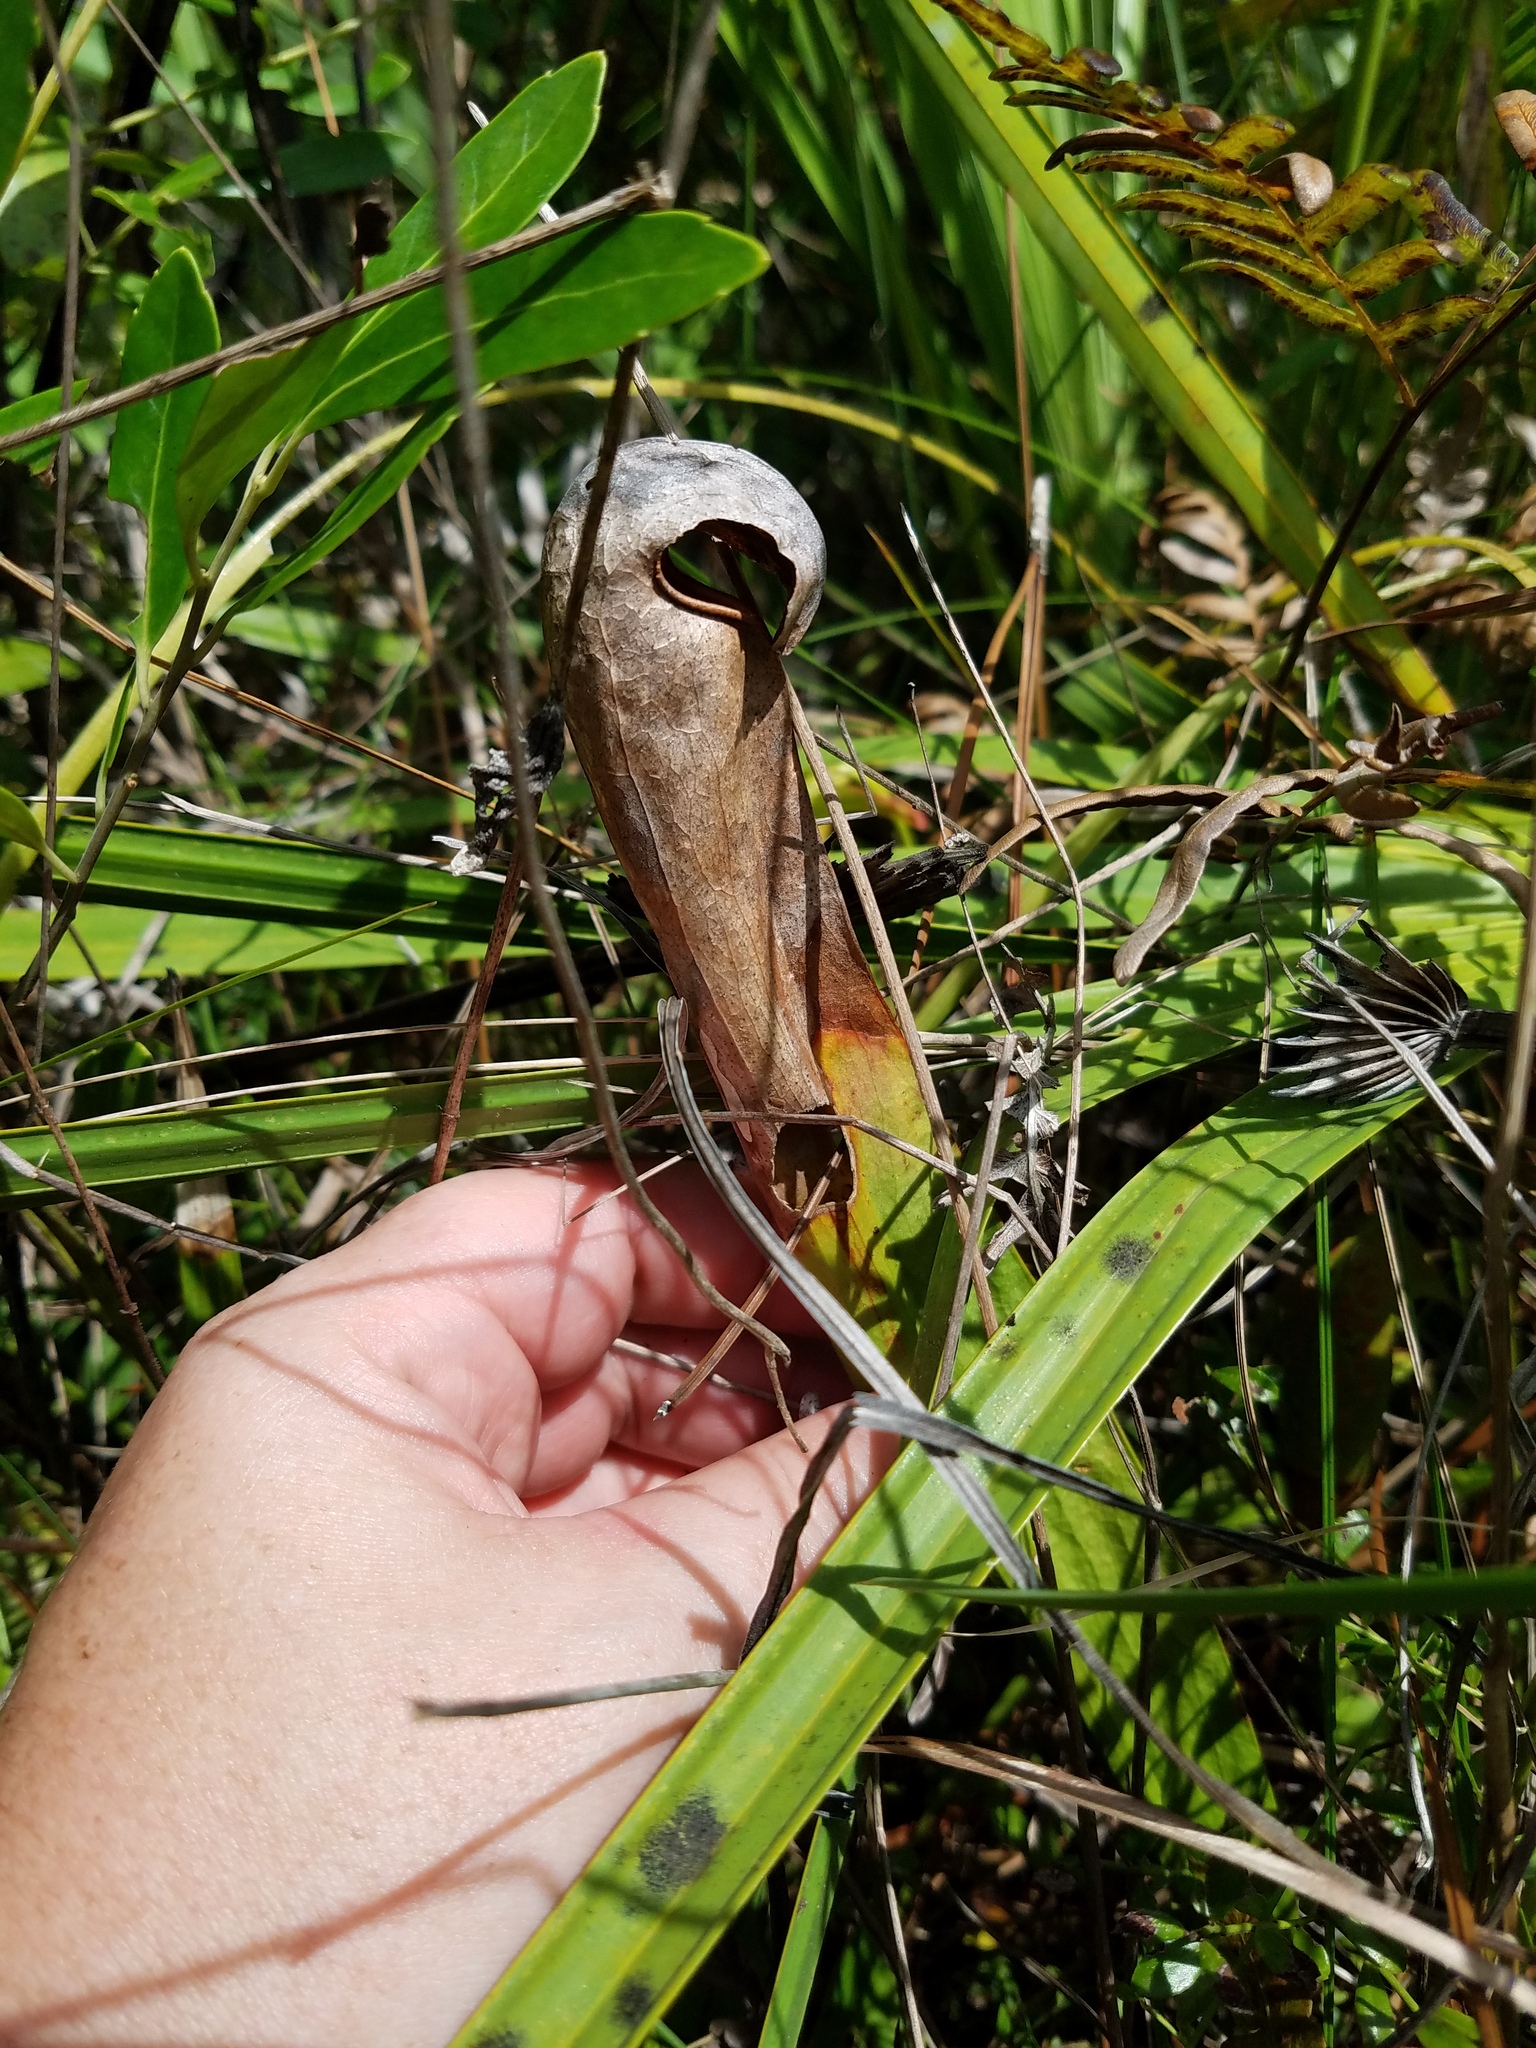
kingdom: Plantae
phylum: Tracheophyta
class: Magnoliopsida
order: Ericales
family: Sarraceniaceae
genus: Sarracenia
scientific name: Sarracenia minor
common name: Rainhat-trumpet
